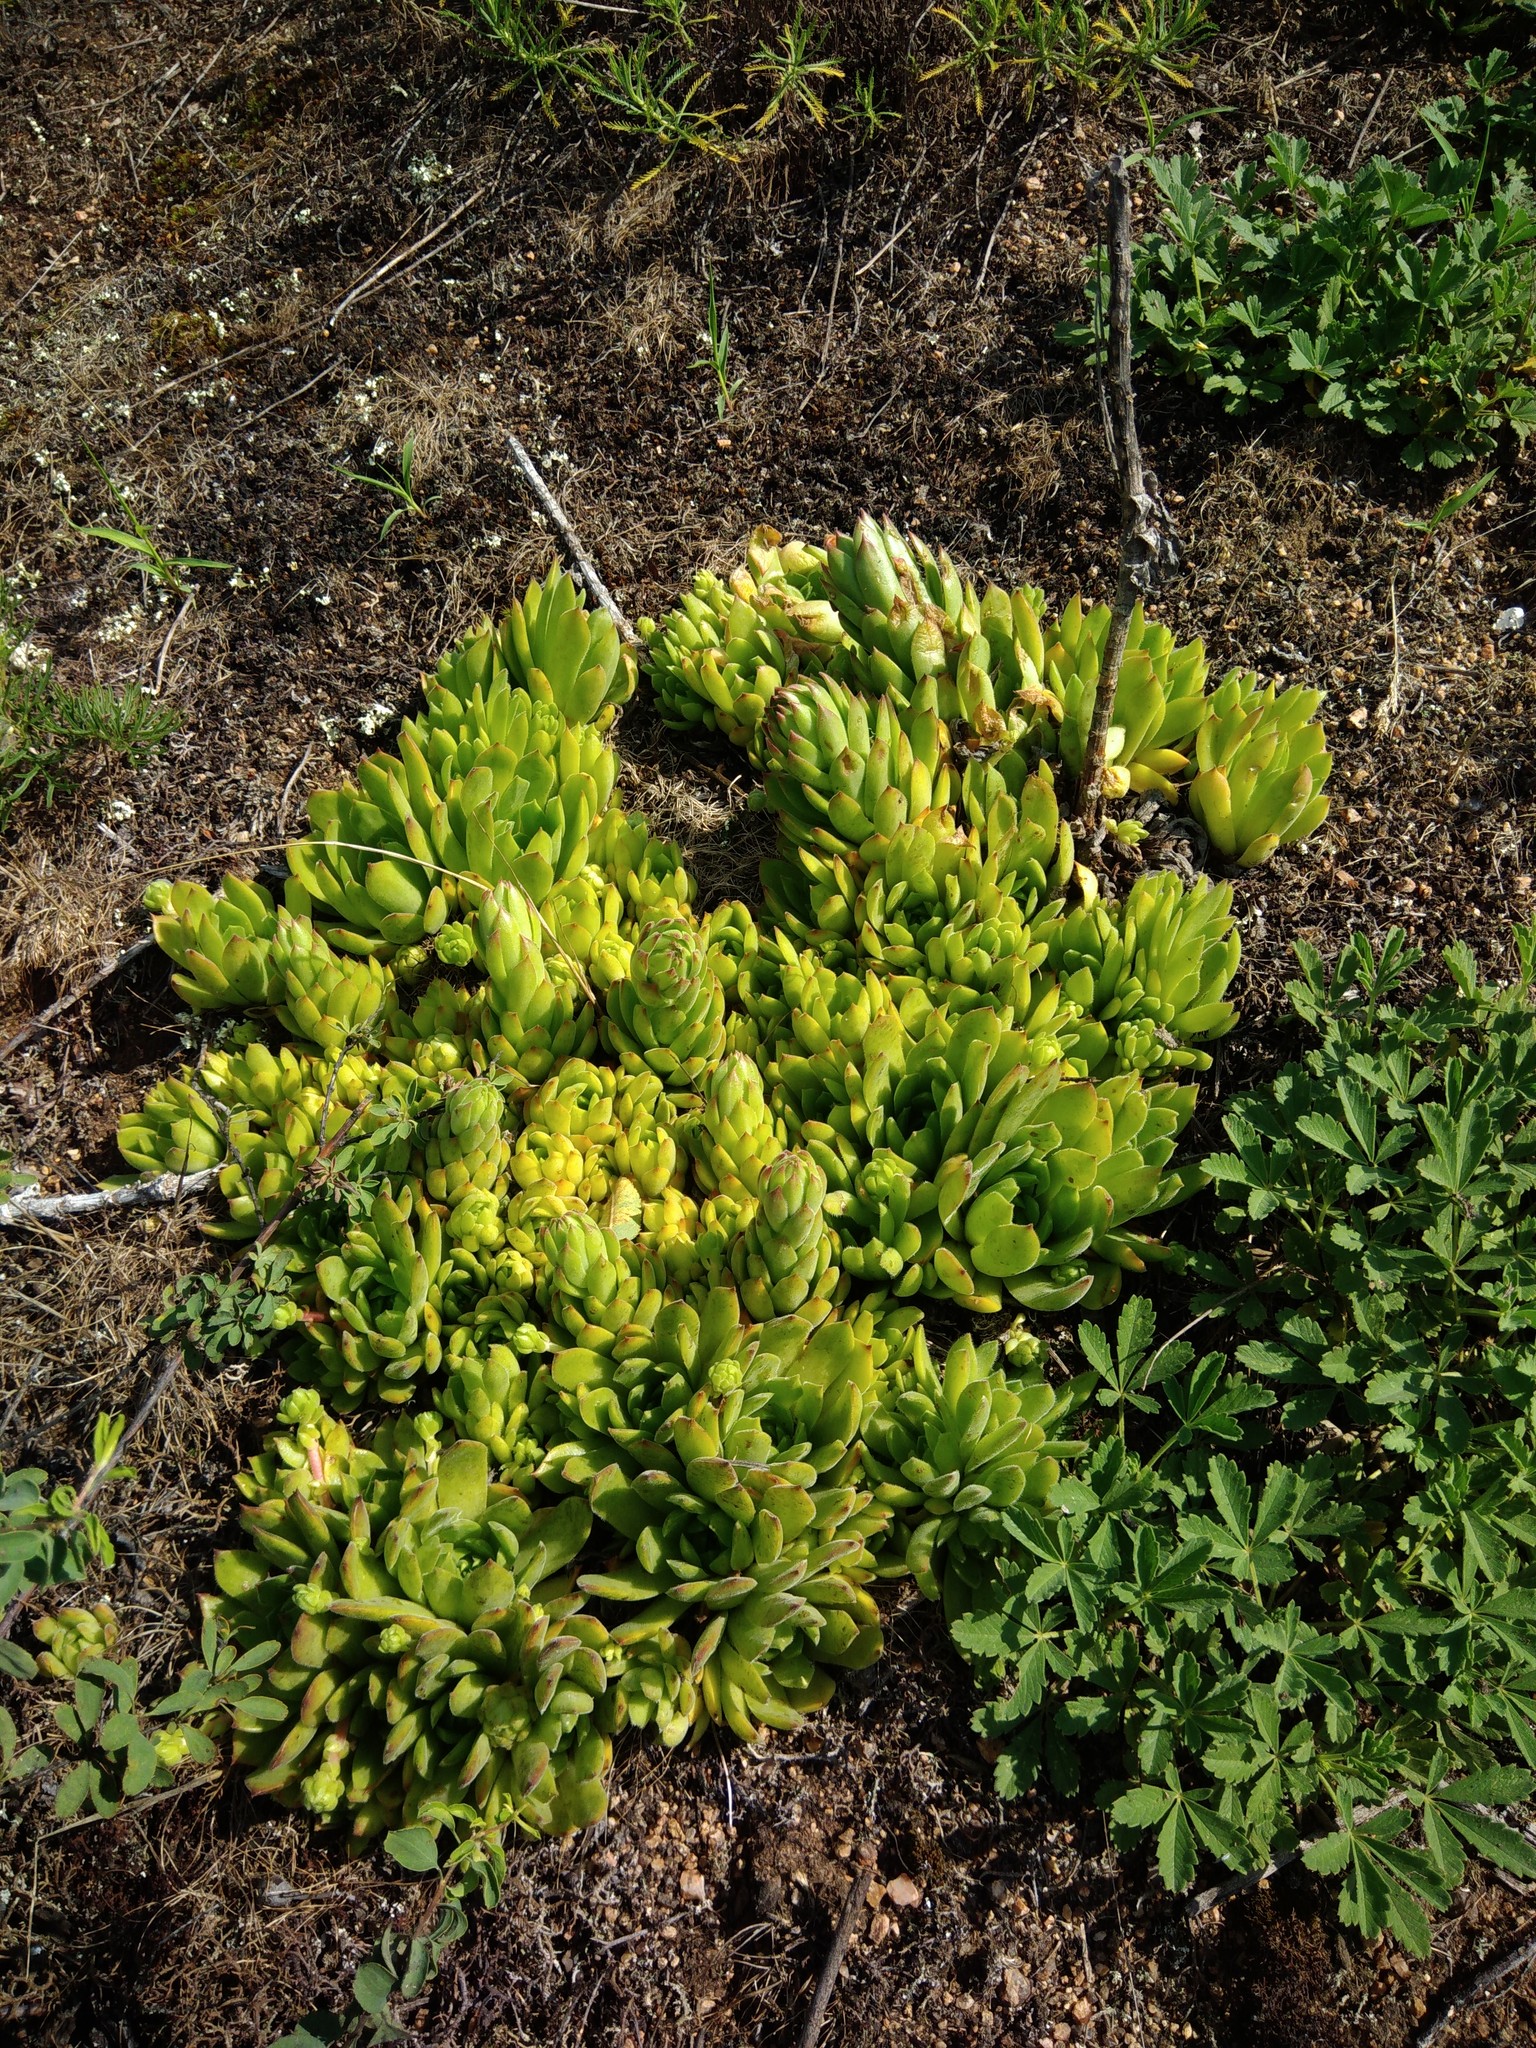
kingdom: Plantae
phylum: Tracheophyta
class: Magnoliopsida
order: Saxifragales
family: Crassulaceae
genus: Sempervivum
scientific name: Sempervivum ruthenicum
